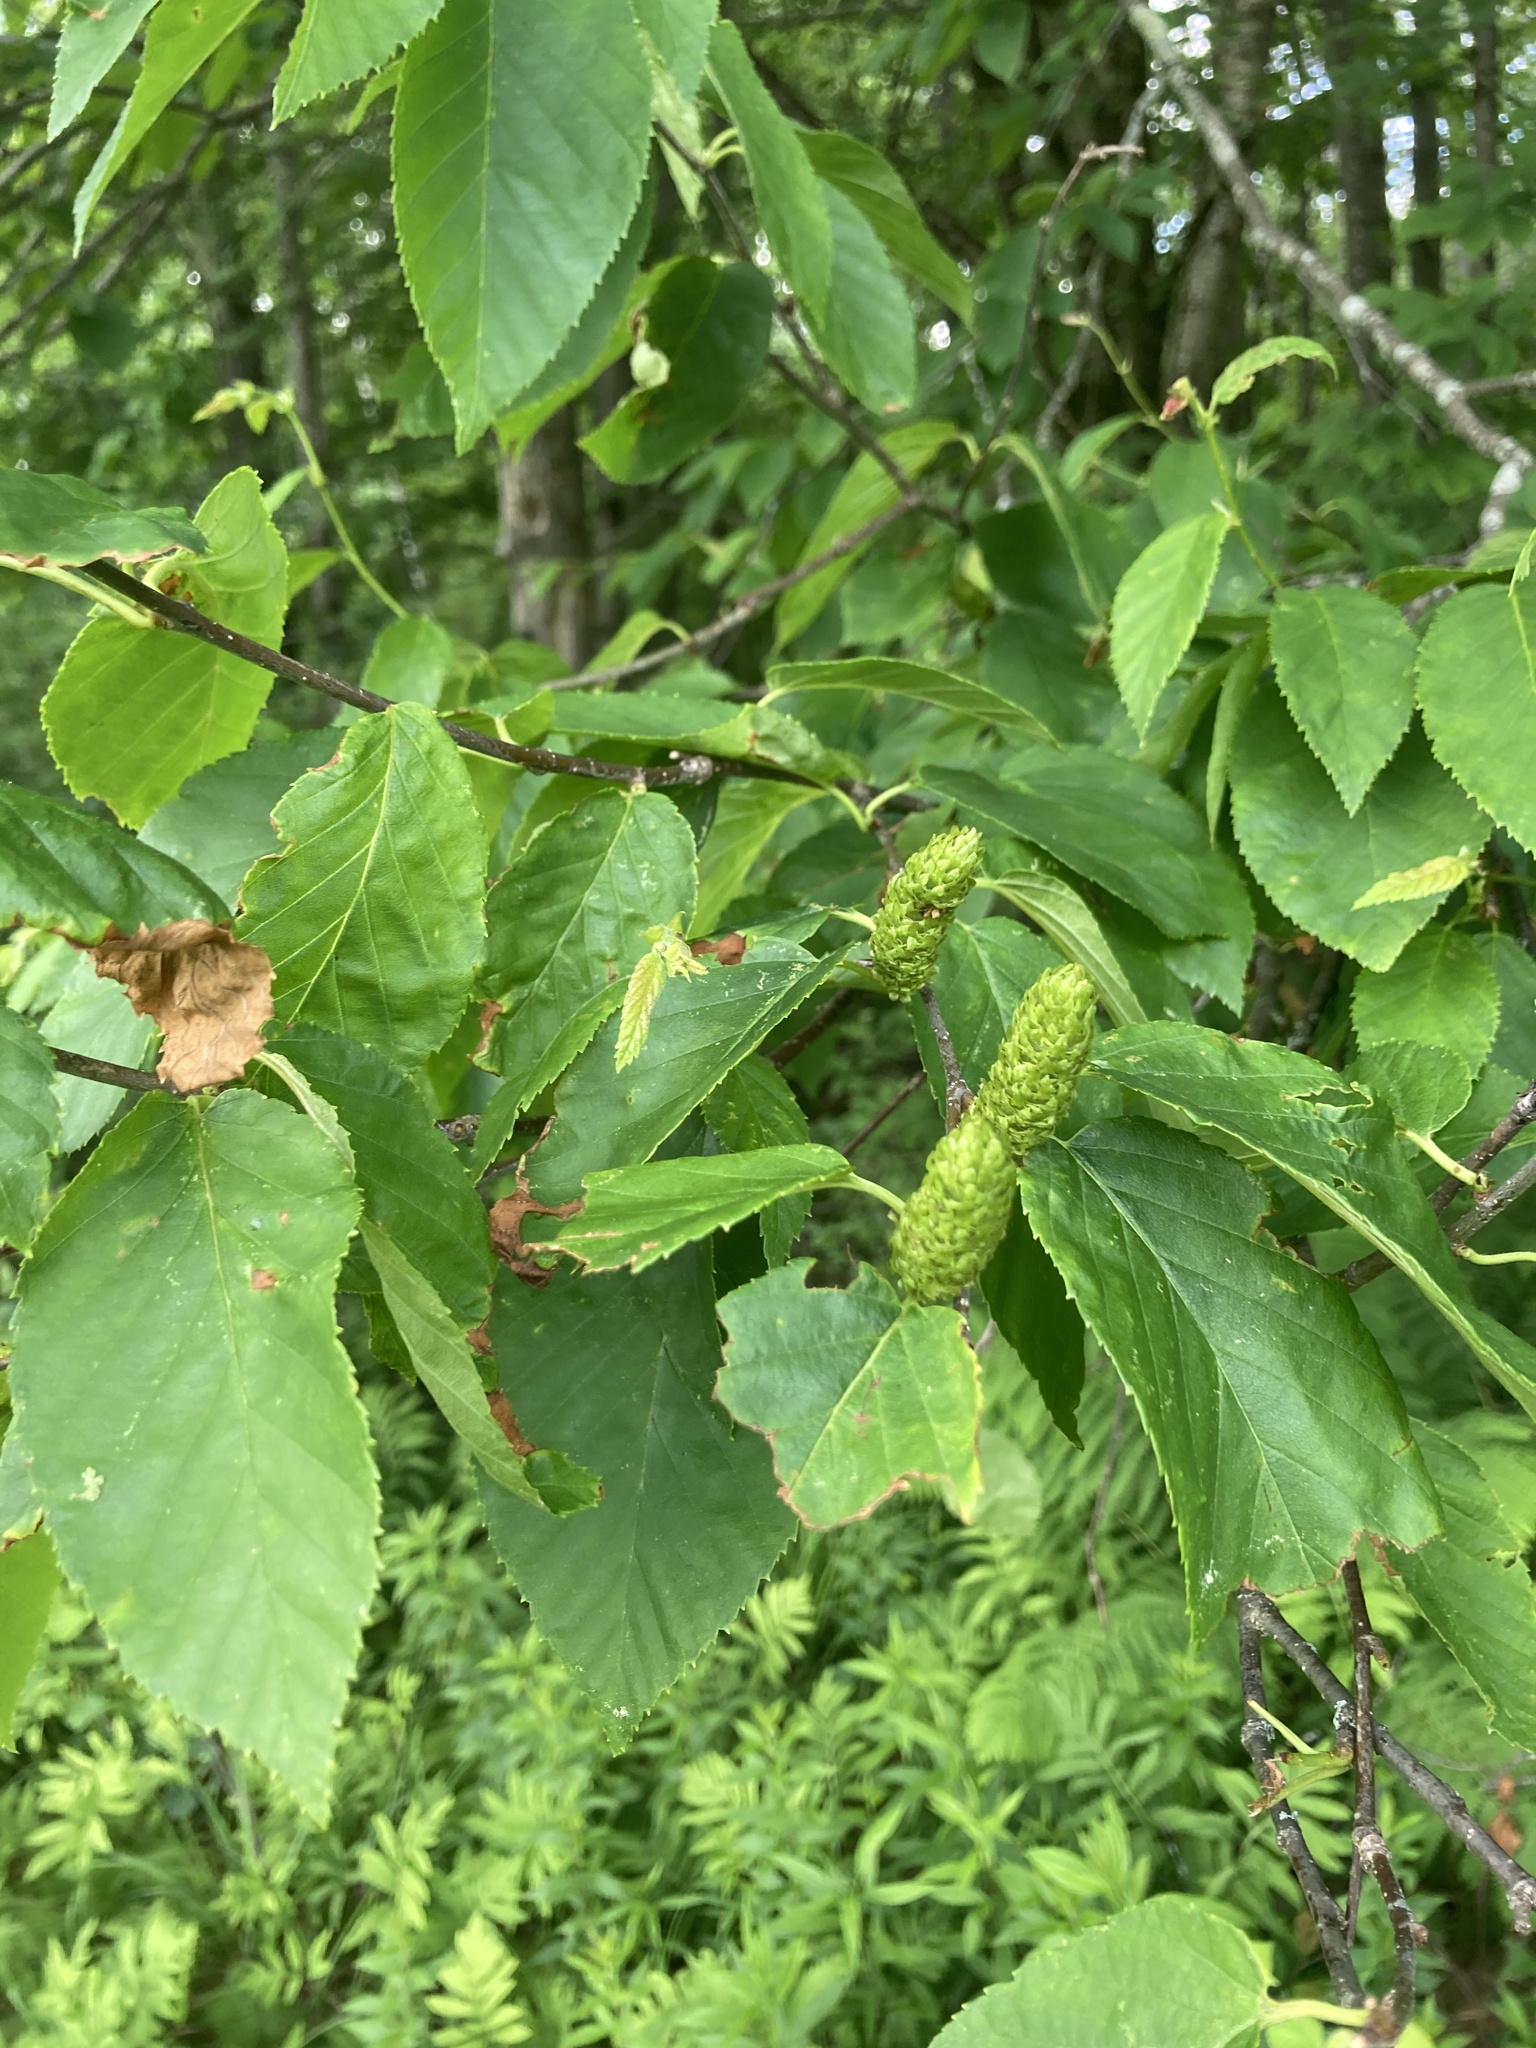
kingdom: Plantae
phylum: Tracheophyta
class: Magnoliopsida
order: Fagales
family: Betulaceae
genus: Betula
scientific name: Betula alleghaniensis
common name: Yellow birch
